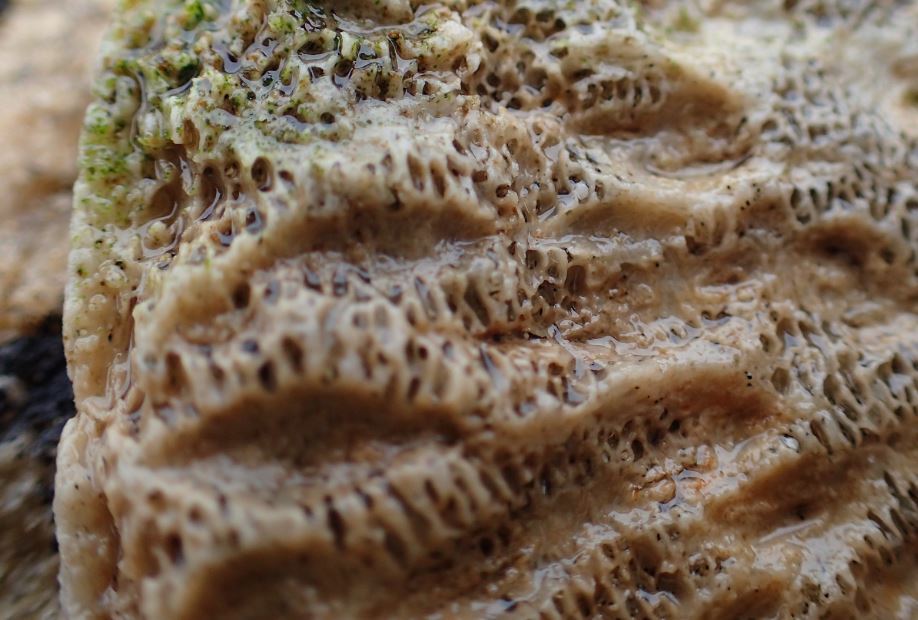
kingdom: Animalia
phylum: Chordata
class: Mammalia
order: Cetacea
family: Delphinidae
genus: Globicephala
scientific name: Globicephala melas
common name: Long-finned pilot whale
